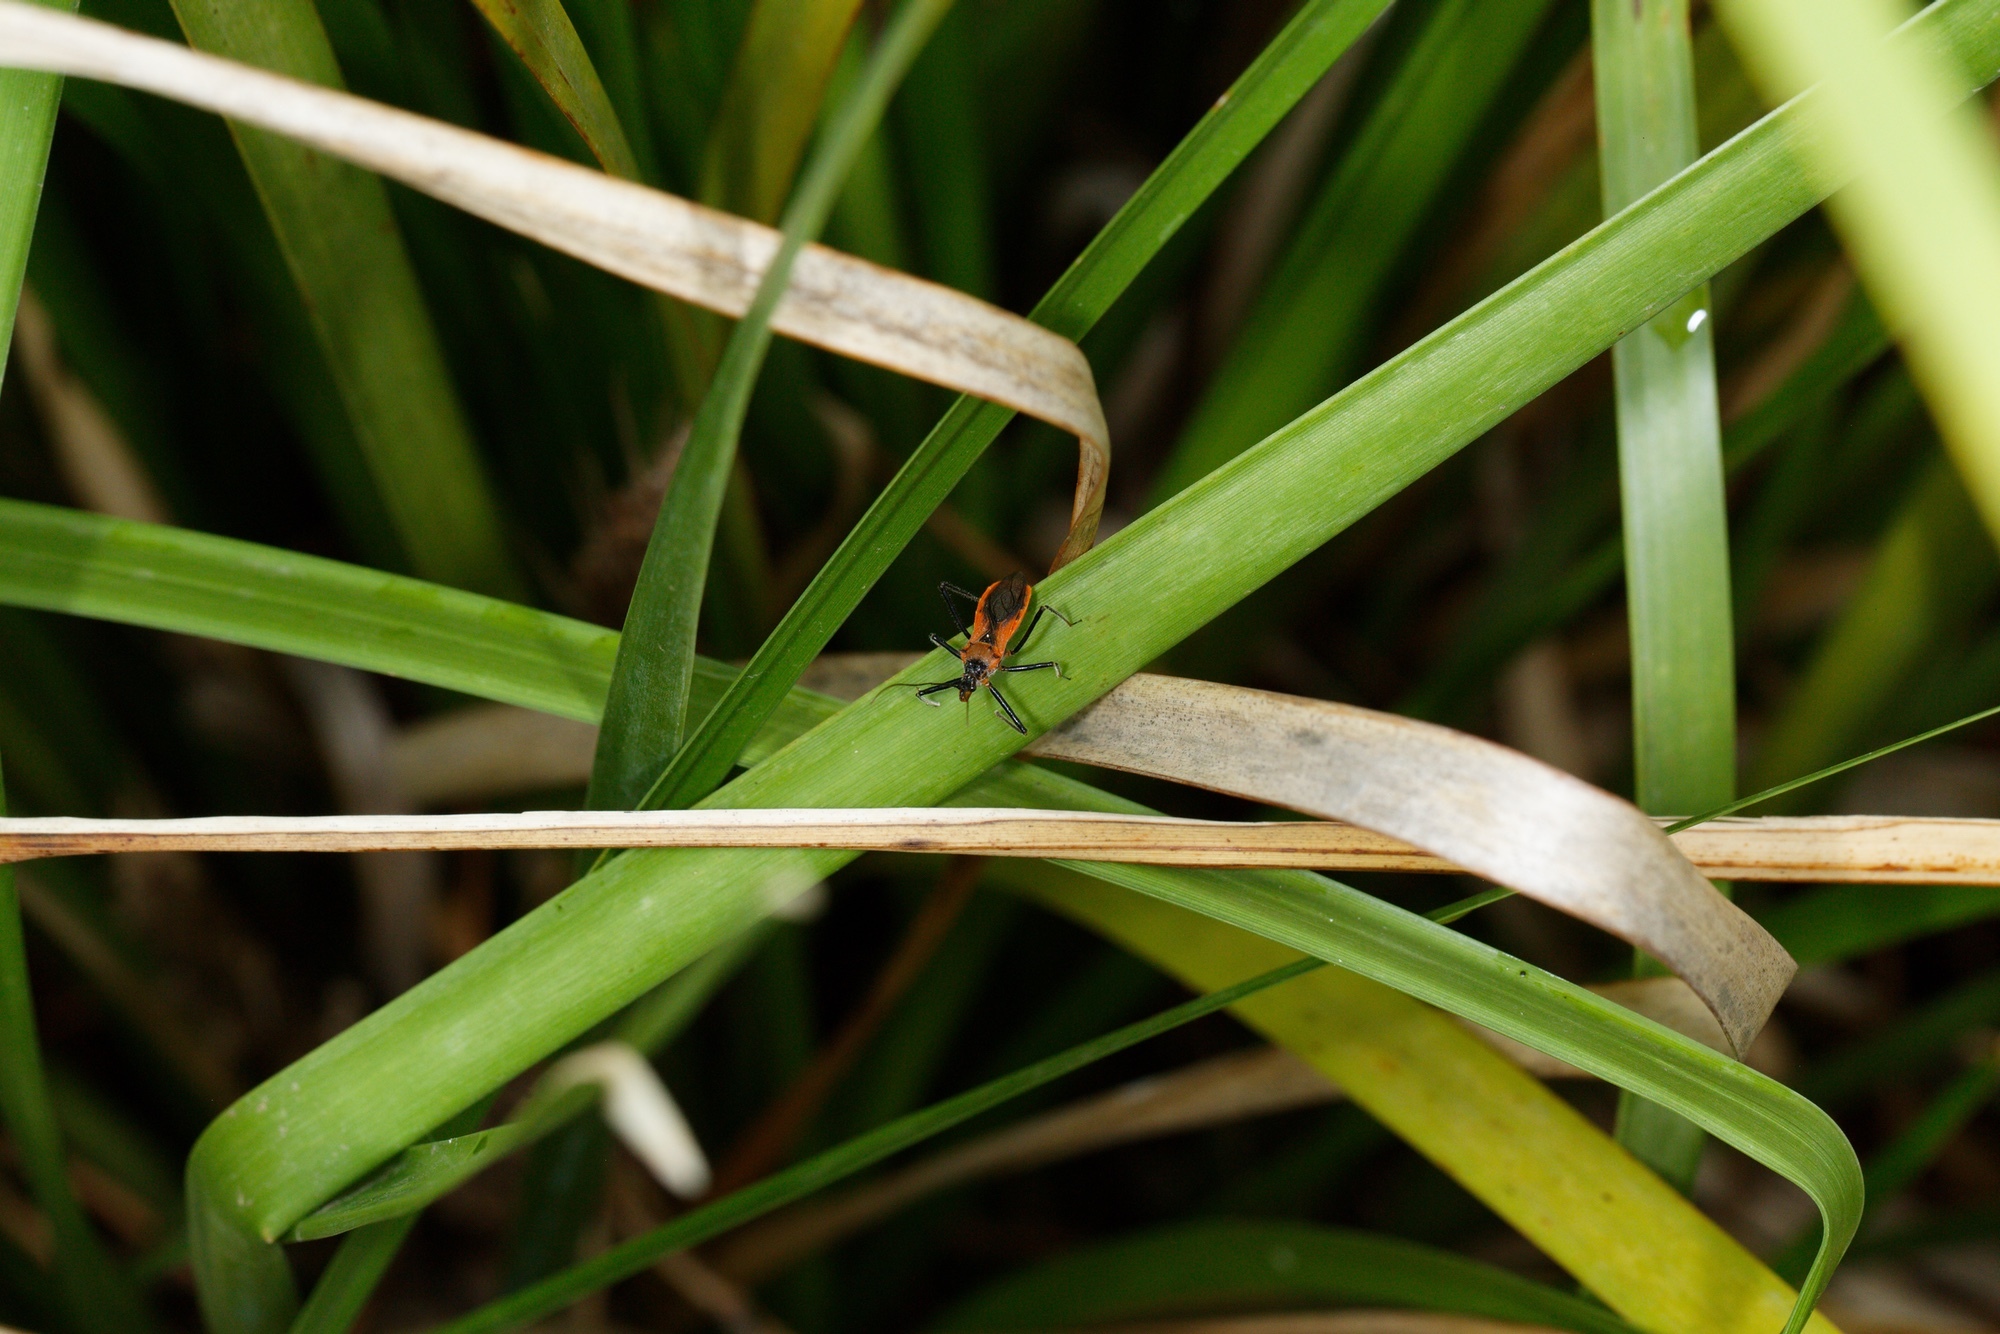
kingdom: Animalia
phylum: Arthropoda
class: Insecta
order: Hemiptera
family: Reduviidae
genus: Gminatus
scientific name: Gminatus australis
